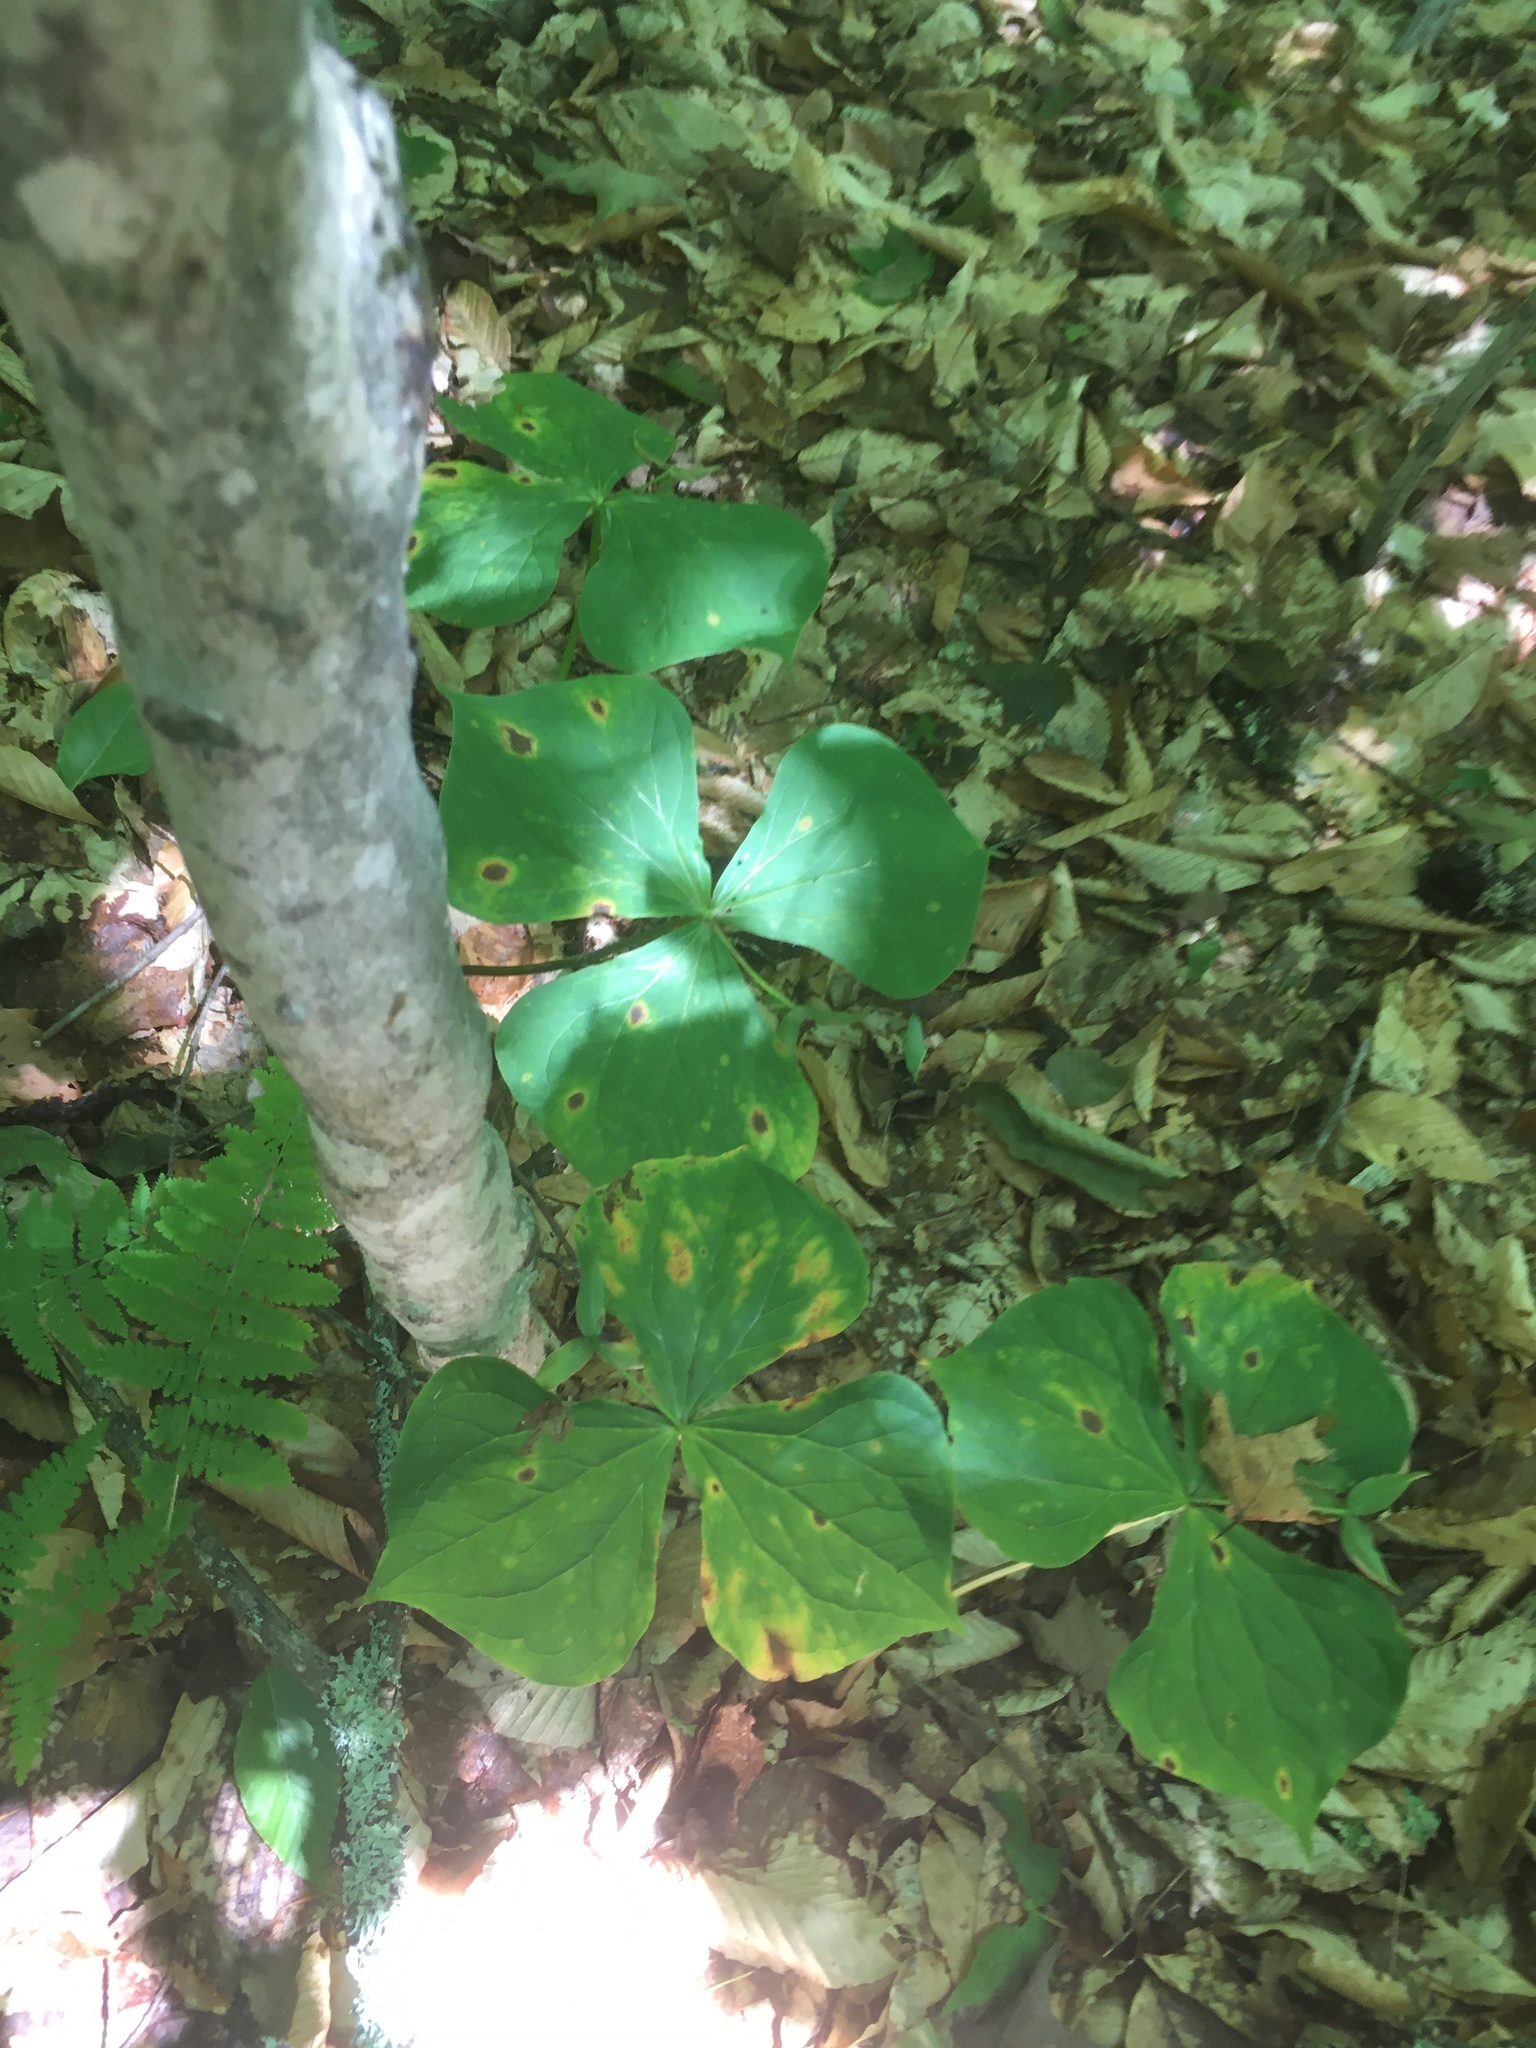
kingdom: Plantae
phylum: Tracheophyta
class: Liliopsida
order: Liliales
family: Melanthiaceae
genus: Trillium
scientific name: Trillium erectum
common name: Purple trillium
